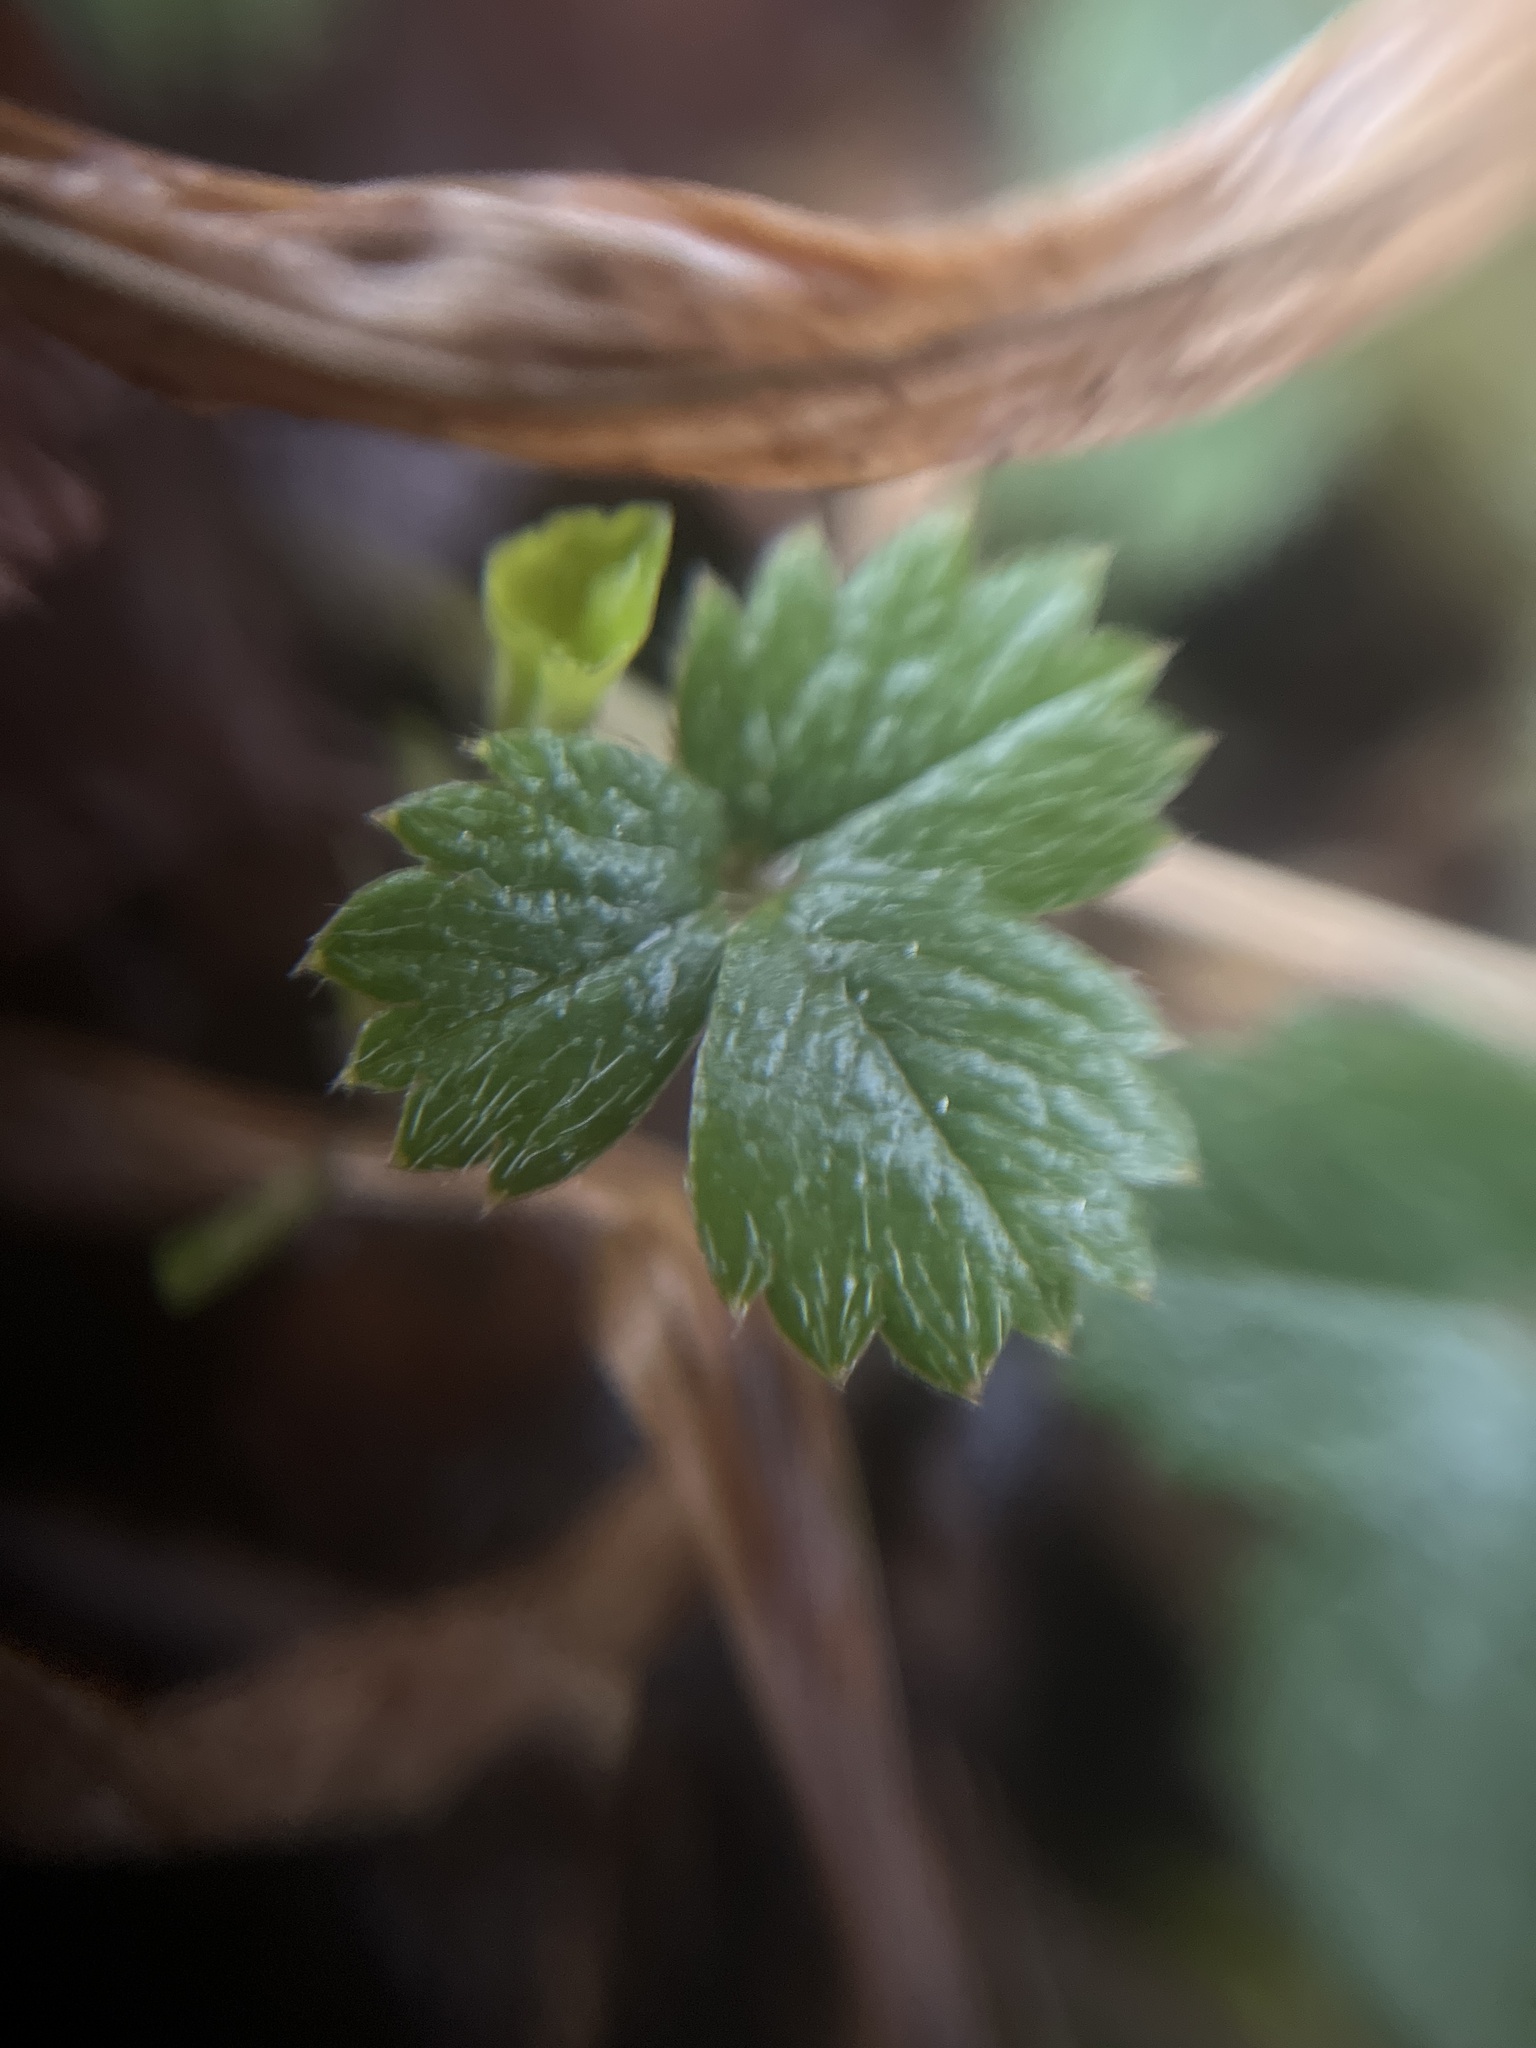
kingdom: Plantae
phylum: Tracheophyta
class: Magnoliopsida
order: Rosales
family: Rosaceae
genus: Potentilla
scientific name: Potentilla sterilis
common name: Barren strawberry
